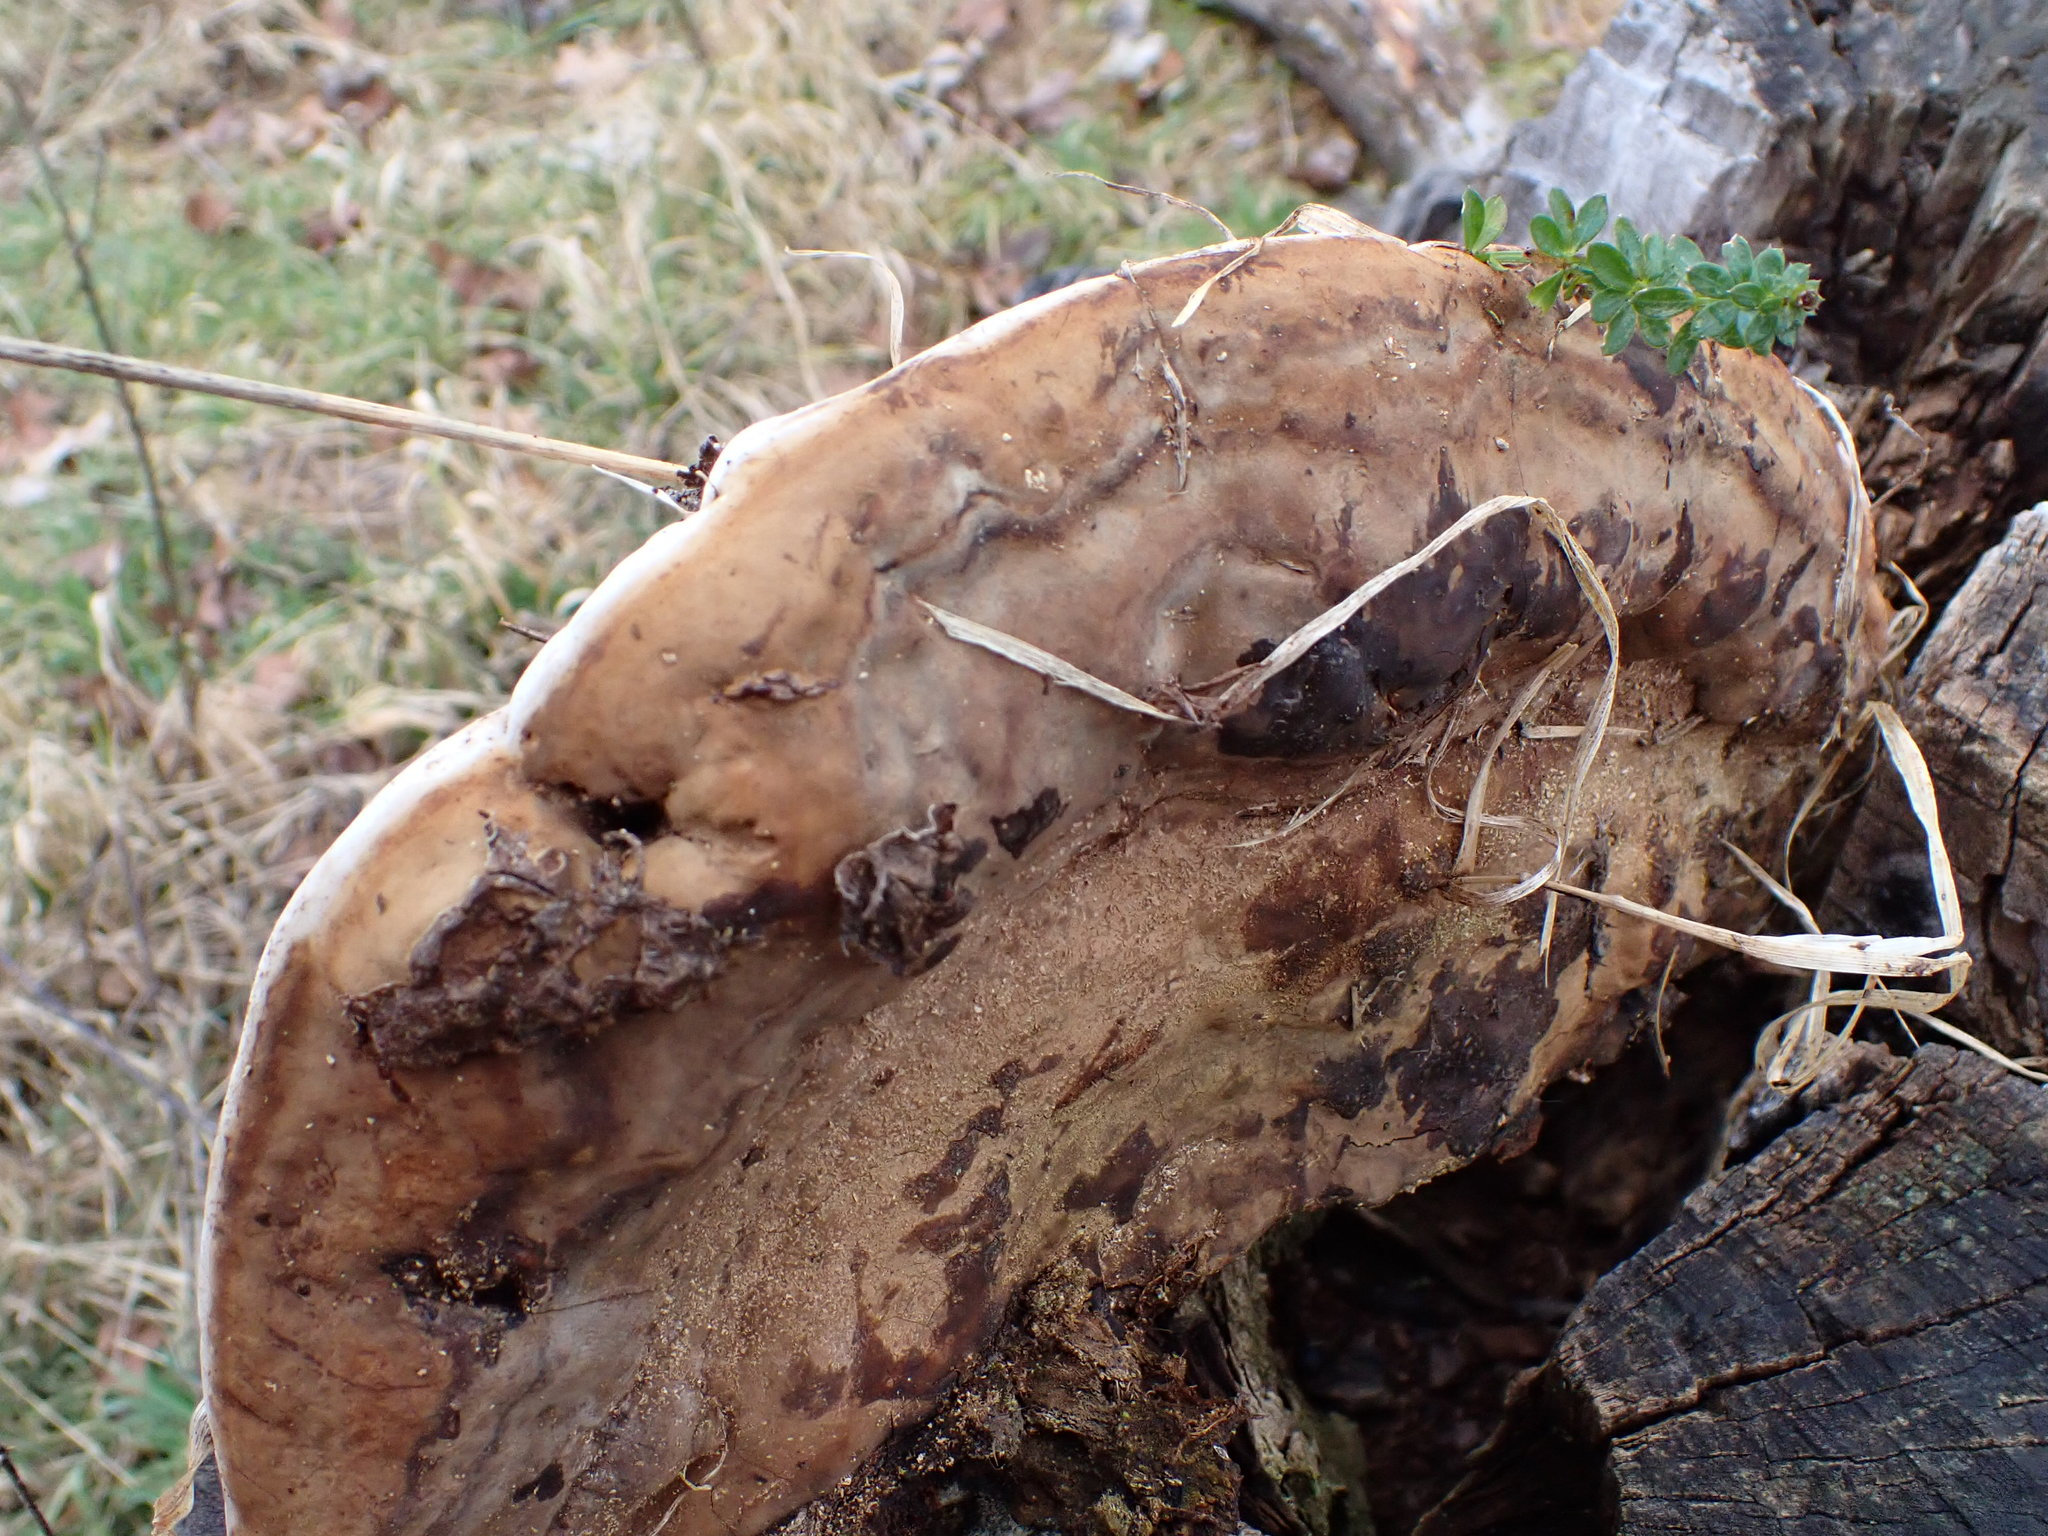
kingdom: Fungi
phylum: Basidiomycota
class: Agaricomycetes
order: Polyporales
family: Polyporaceae
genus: Ganoderma
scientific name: Ganoderma applanatum
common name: Artist's bracket
